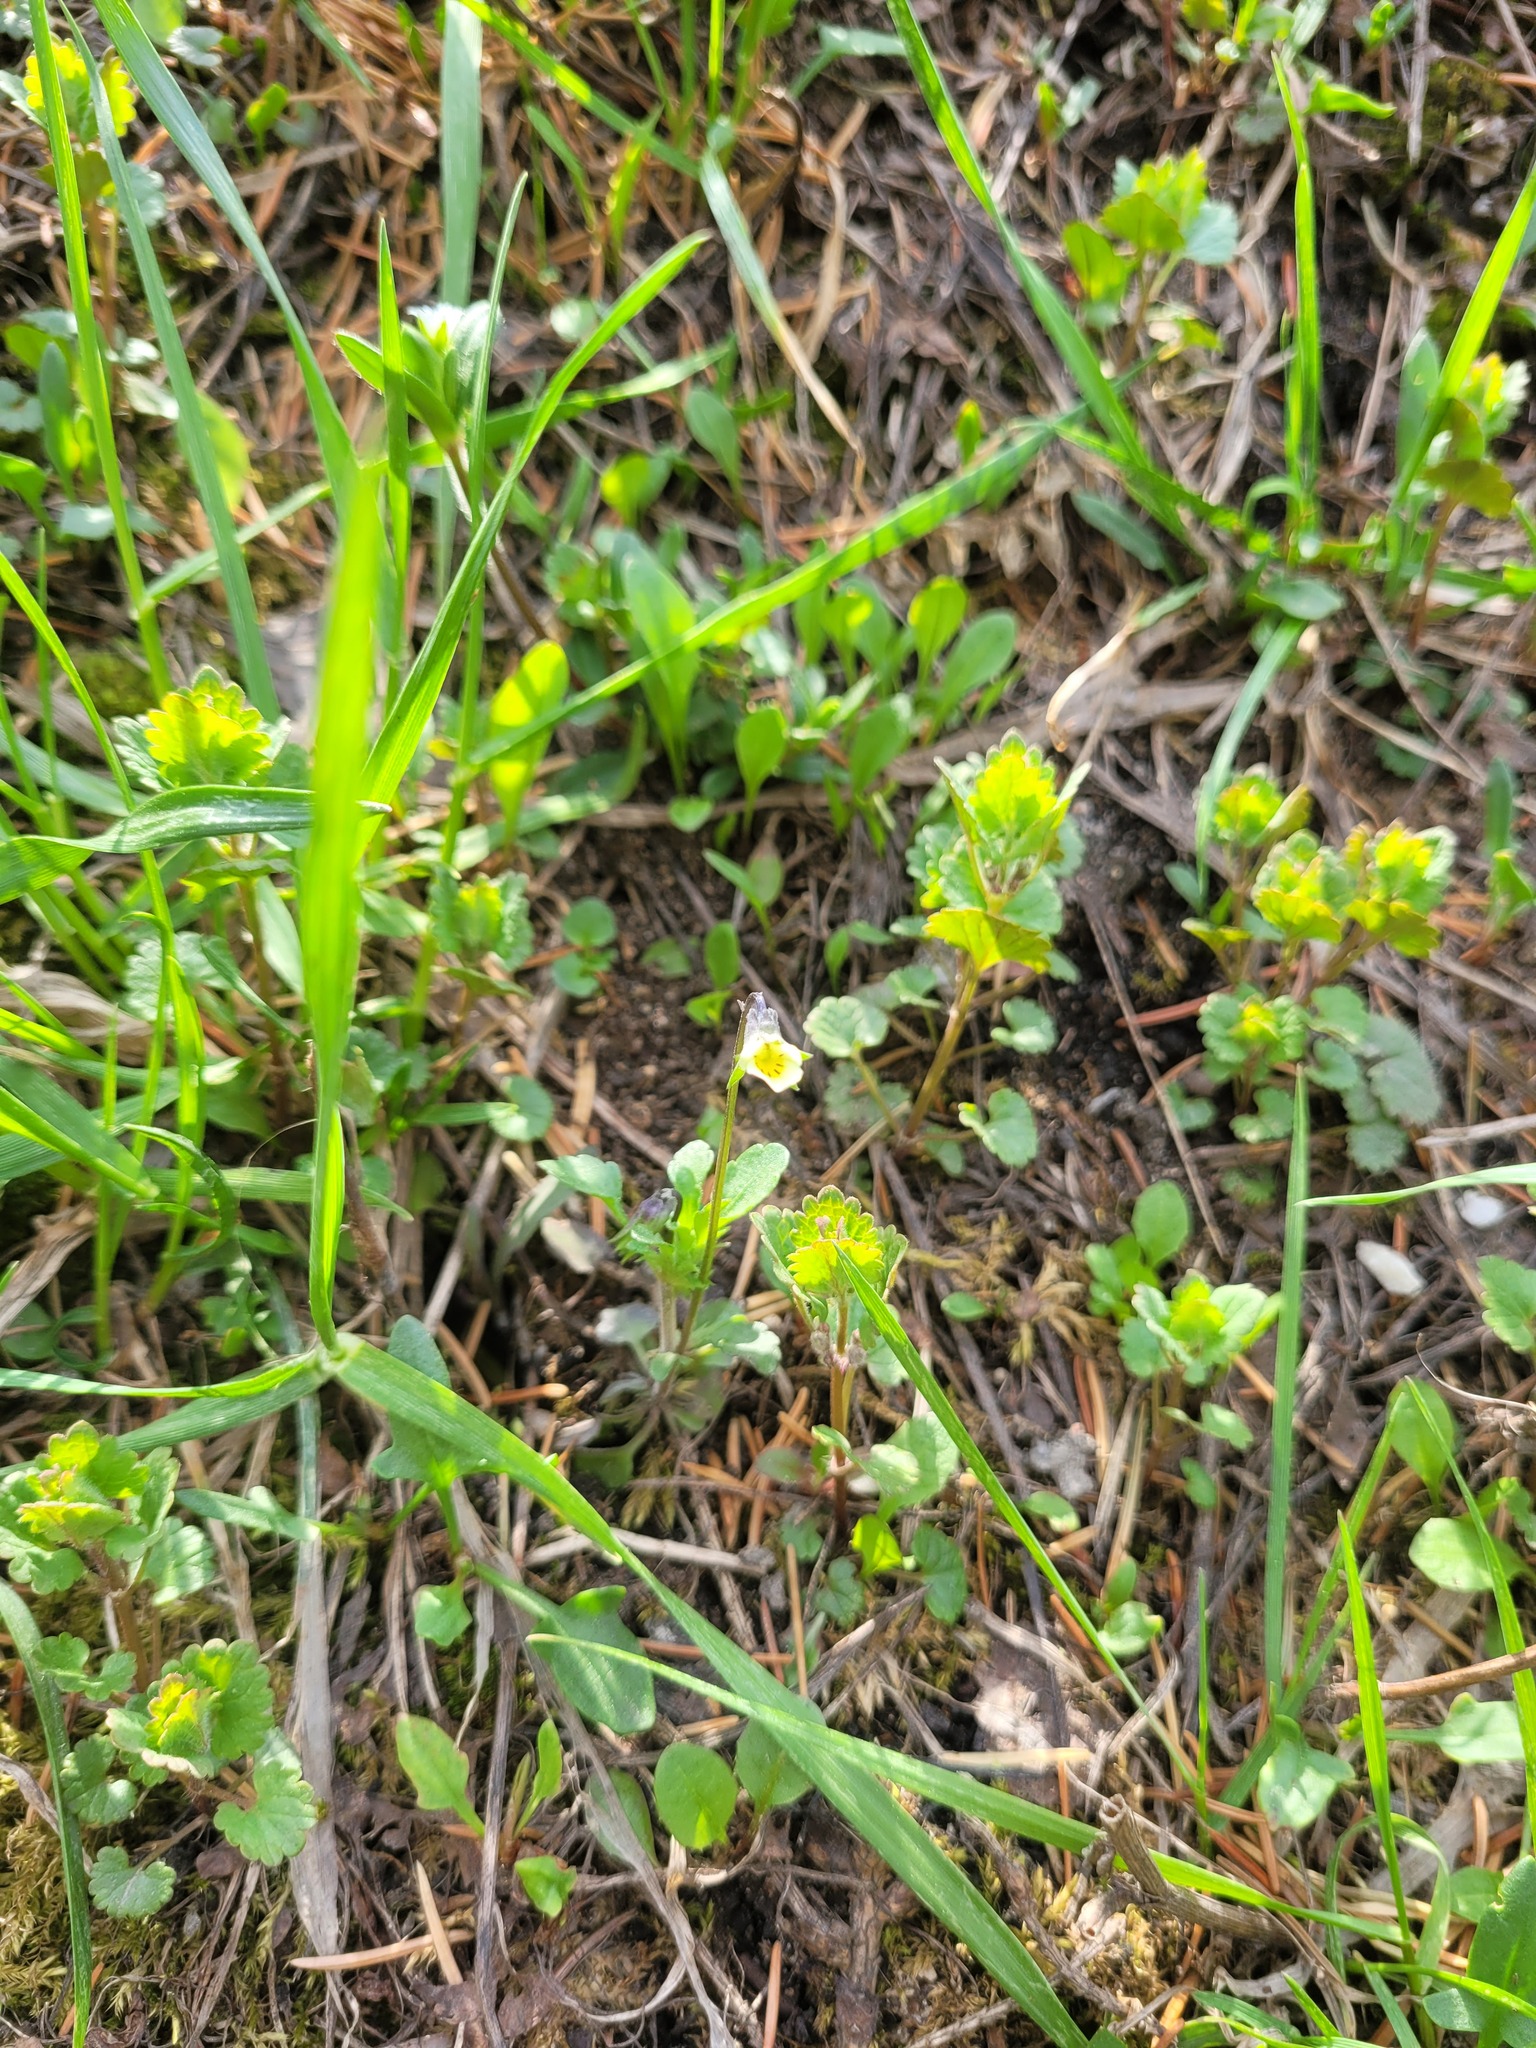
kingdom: Plantae
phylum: Tracheophyta
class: Magnoliopsida
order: Malpighiales
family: Violaceae
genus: Viola
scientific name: Viola arvensis
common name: Field pansy
